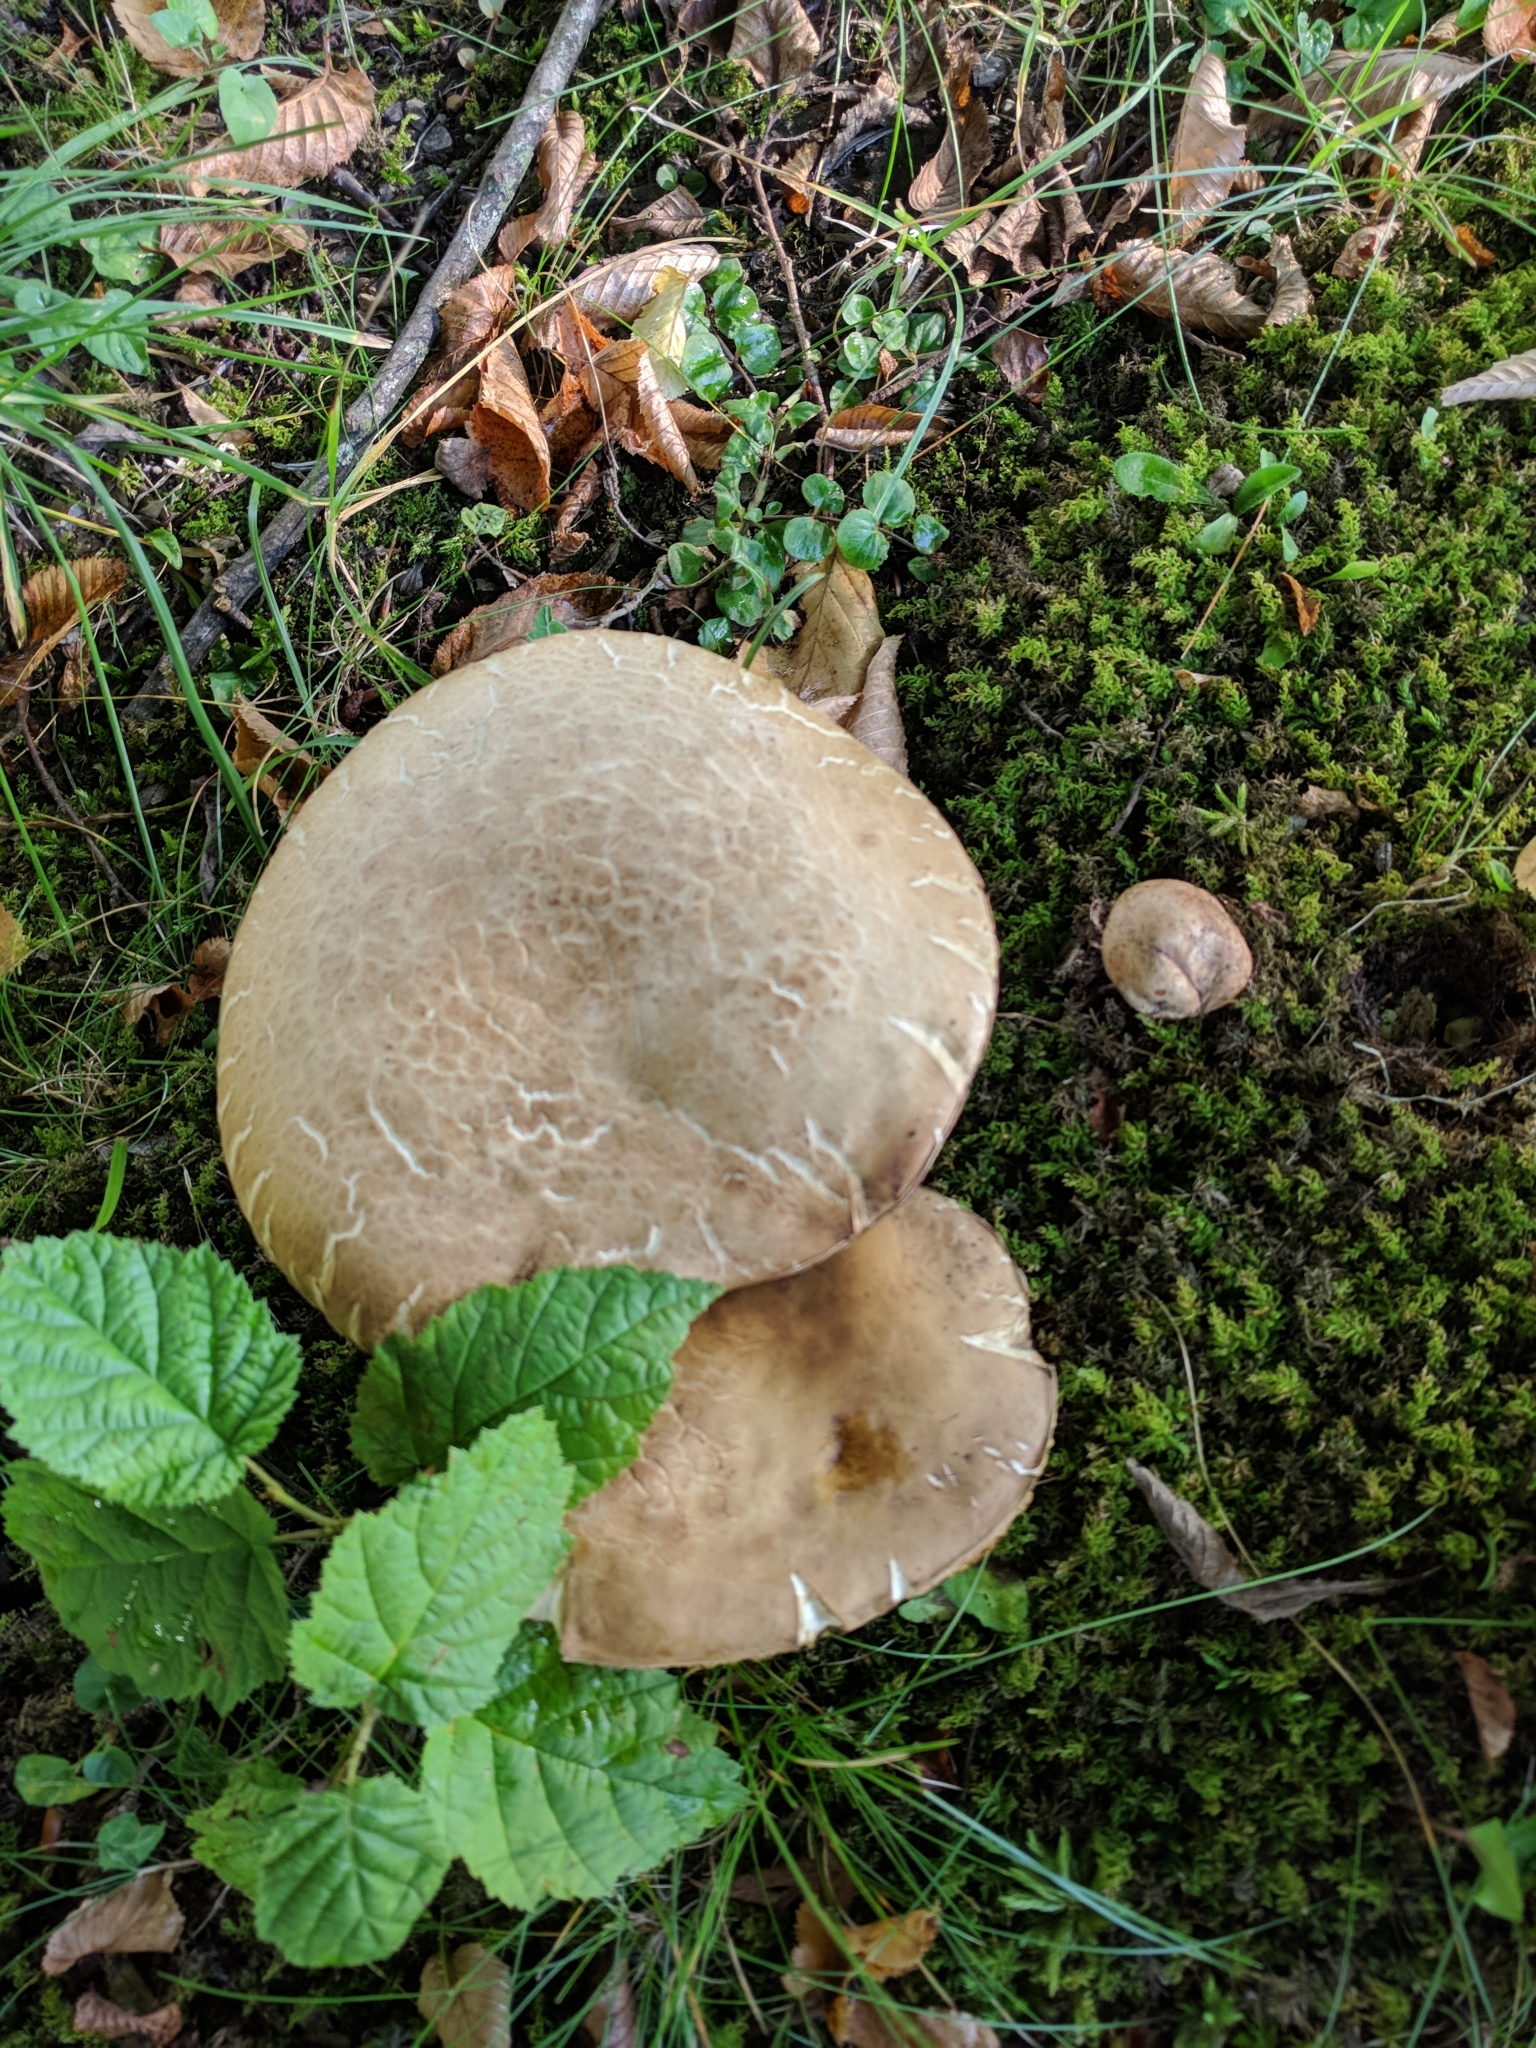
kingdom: Fungi
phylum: Basidiomycota
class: Agaricomycetes
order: Boletales
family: Boletaceae
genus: Caloboletus
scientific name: Caloboletus radicans
